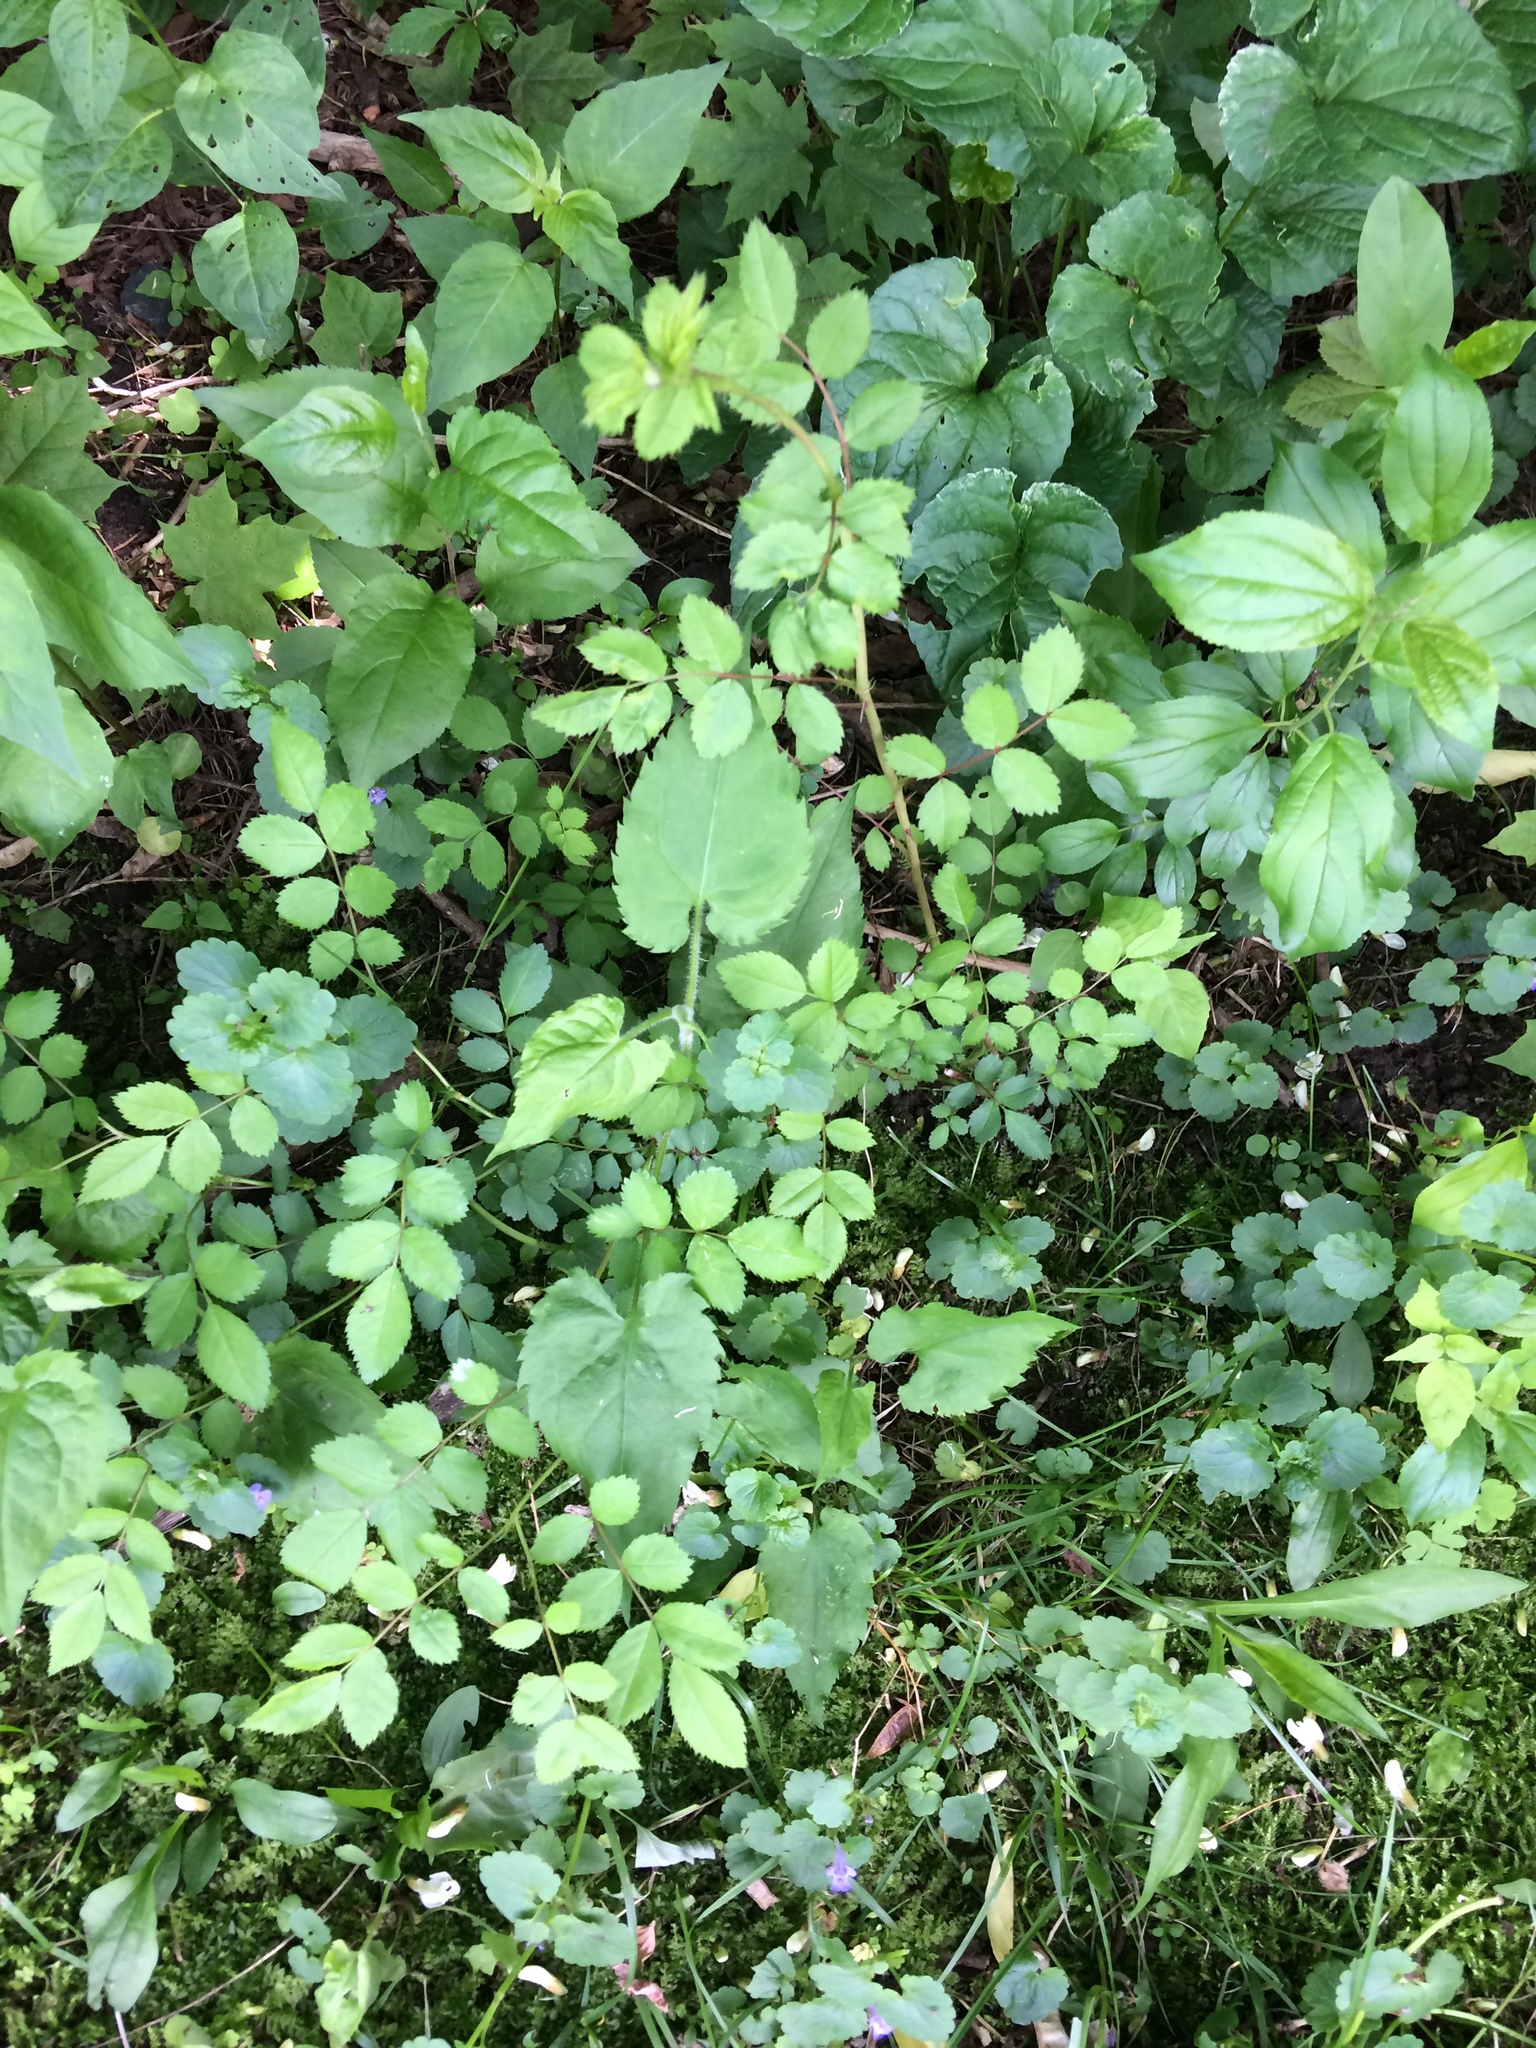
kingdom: Plantae
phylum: Tracheophyta
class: Magnoliopsida
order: Rosales
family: Rosaceae
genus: Rosa
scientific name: Rosa multiflora
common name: Multiflora rose
